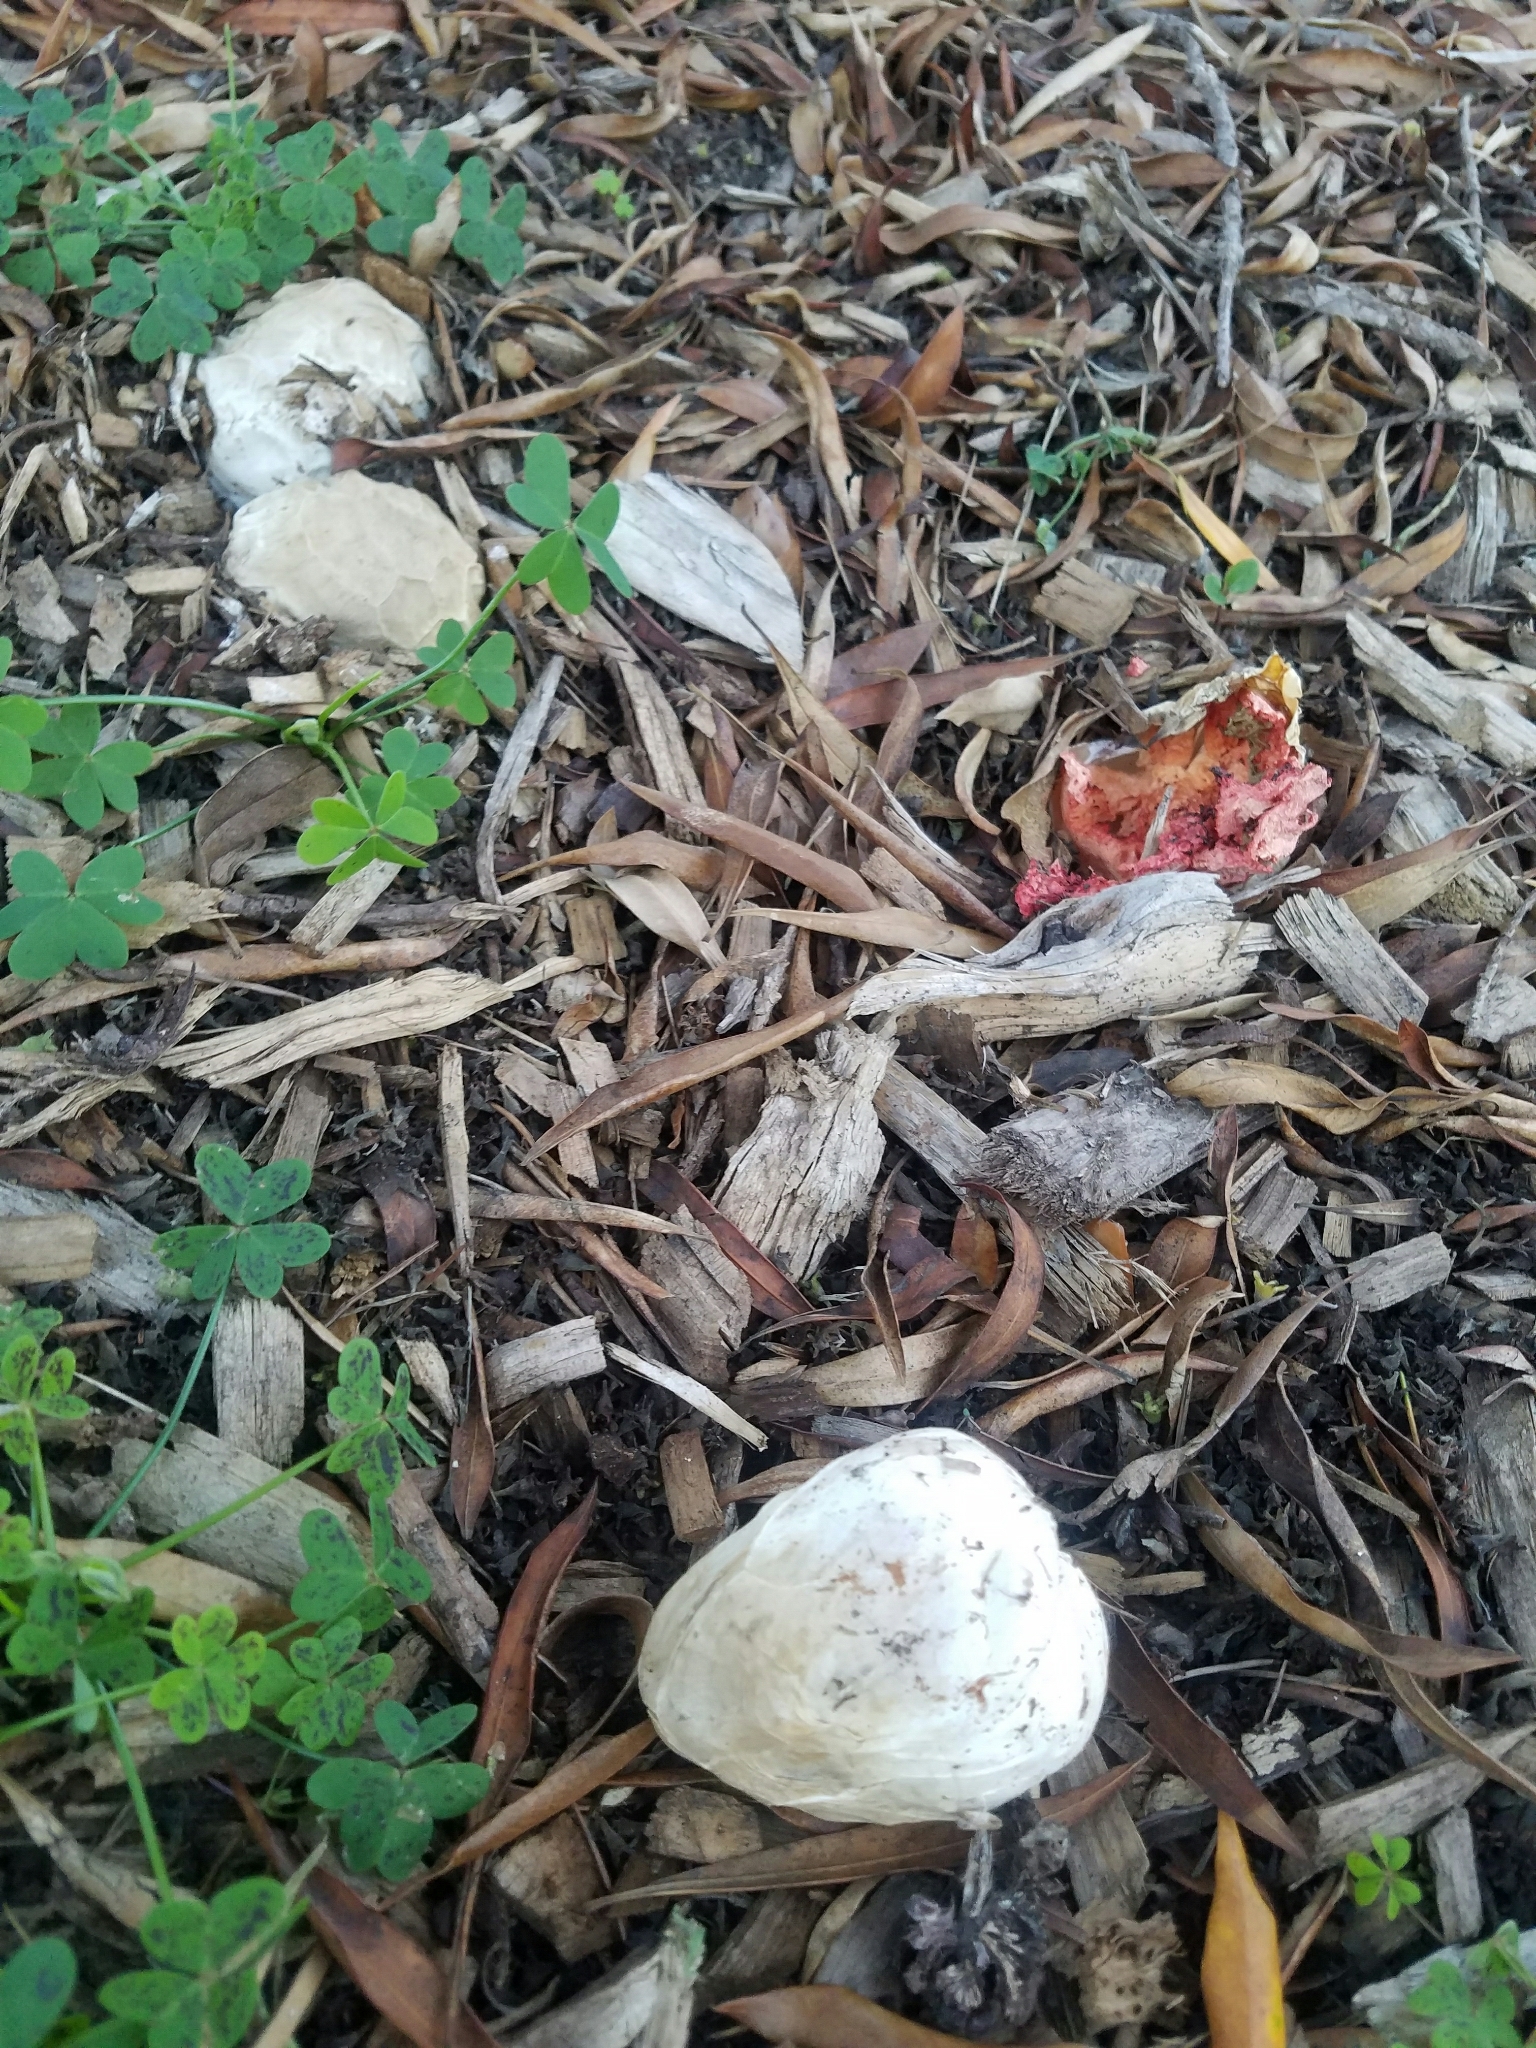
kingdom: Fungi
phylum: Basidiomycota
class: Agaricomycetes
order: Phallales
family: Phallaceae
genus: Clathrus
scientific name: Clathrus ruber
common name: Red cage
